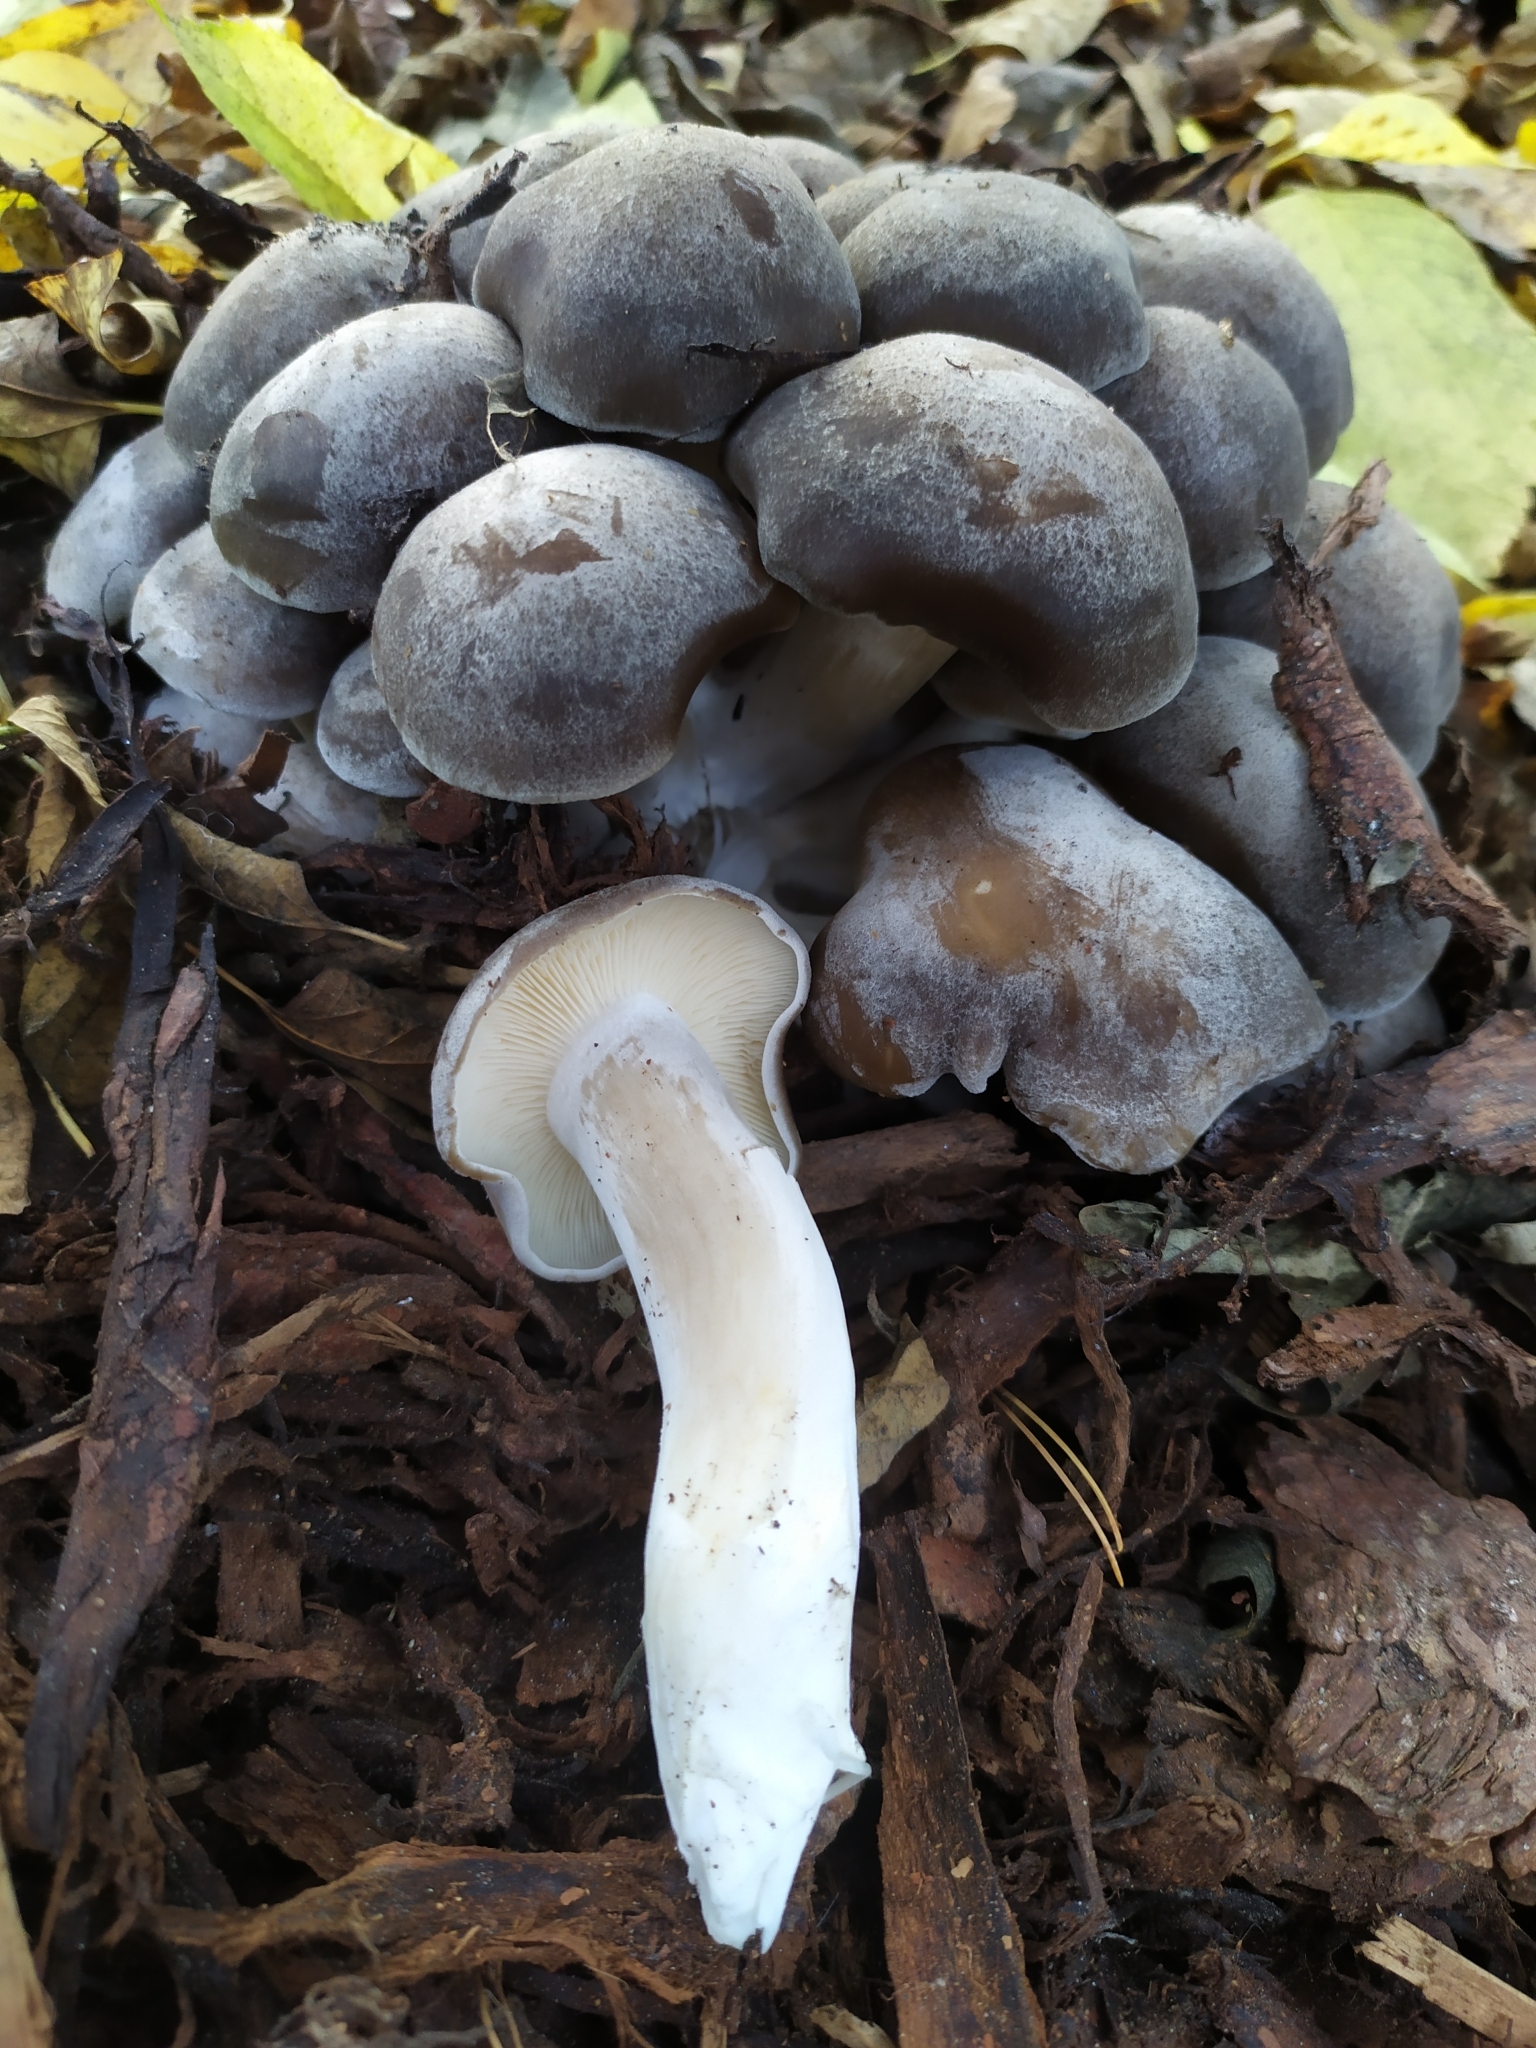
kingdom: Fungi
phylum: Basidiomycota
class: Agaricomycetes
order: Agaricales
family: Lyophyllaceae
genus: Lyophyllum
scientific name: Lyophyllum loricatum
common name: Gristly domecap
